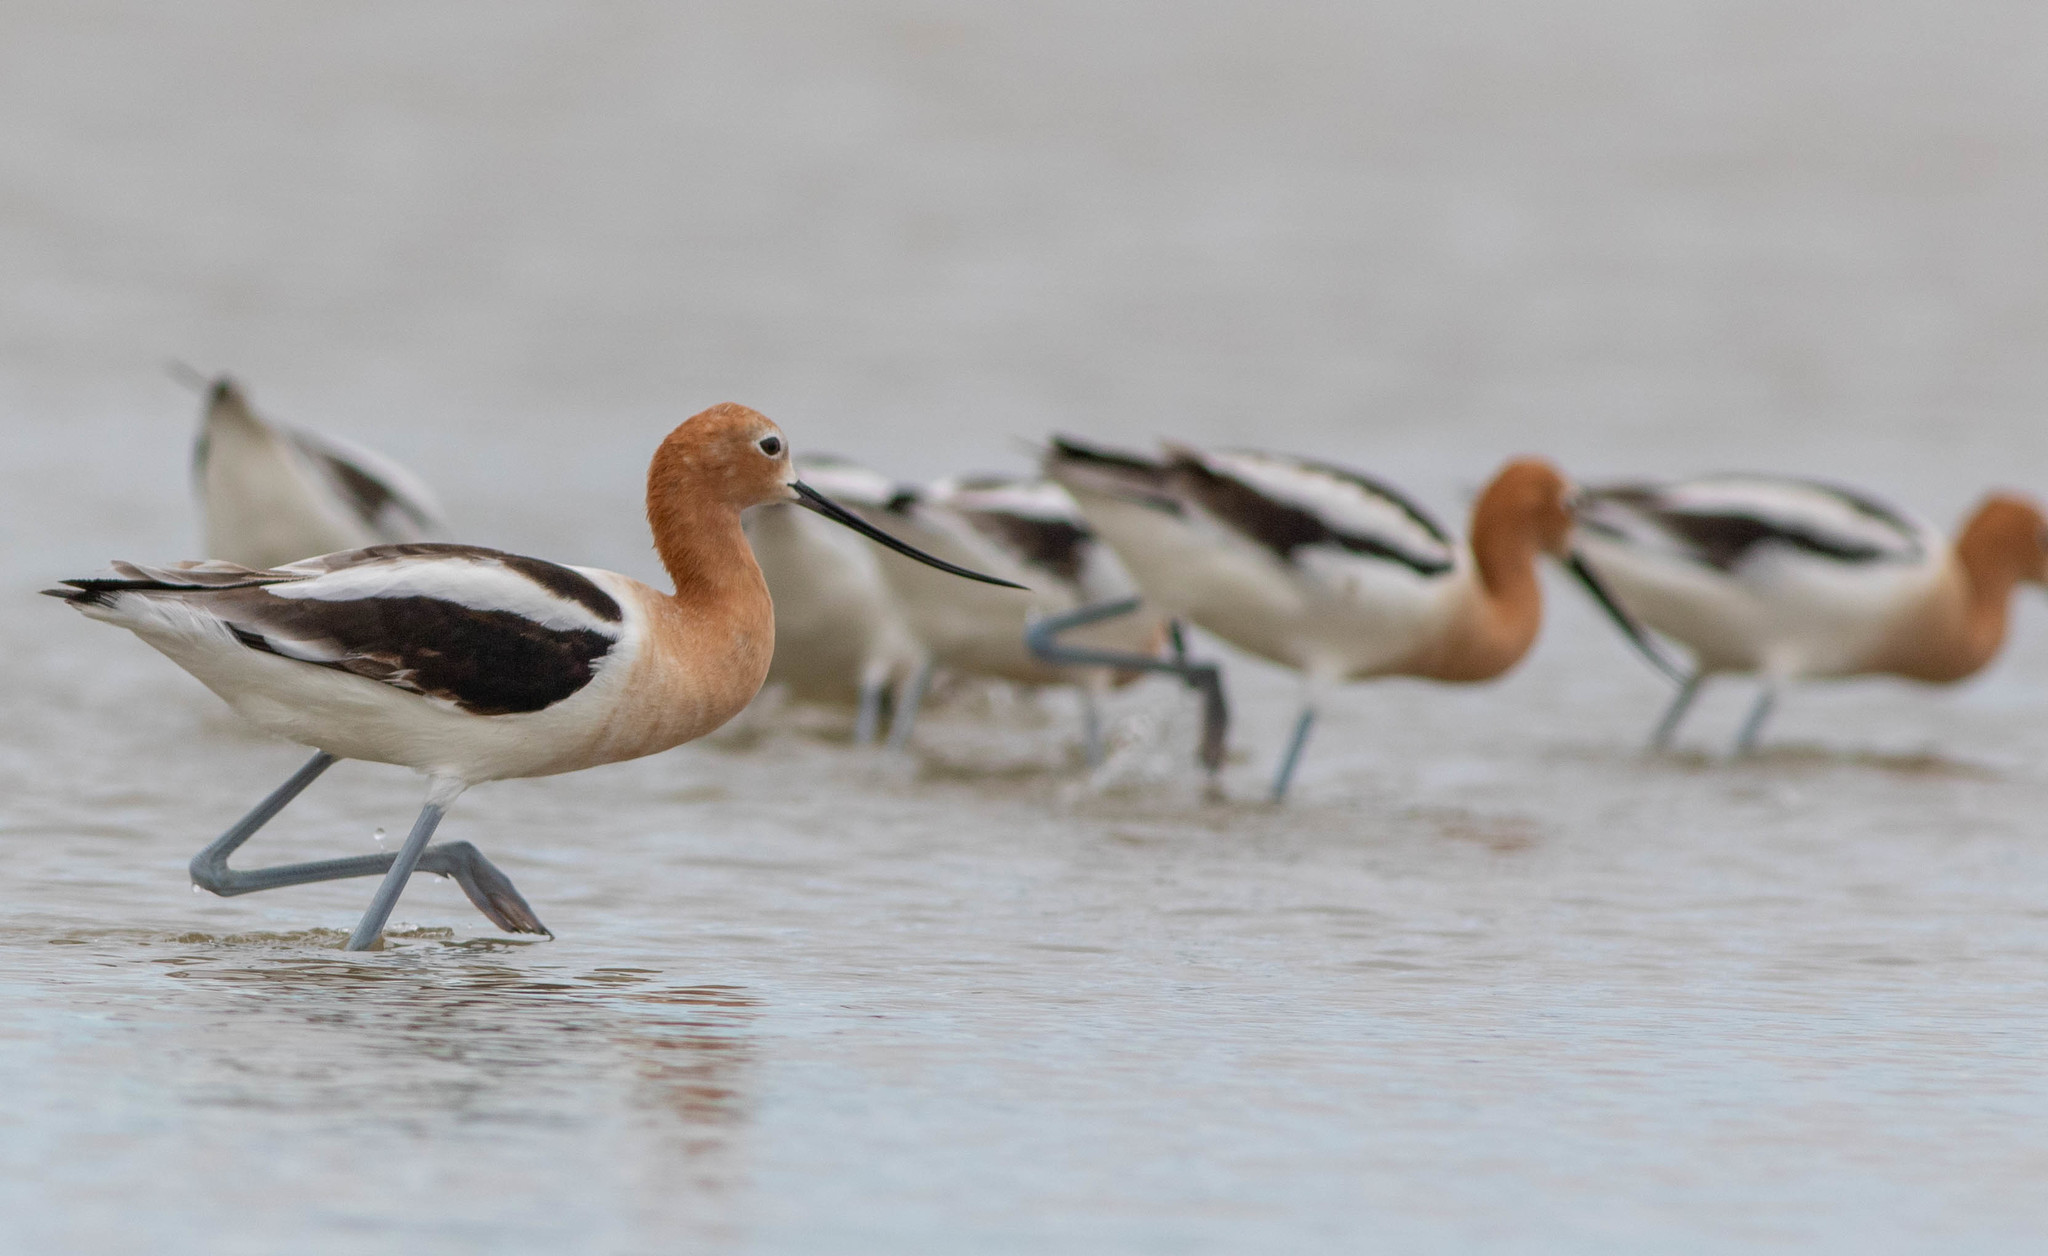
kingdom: Animalia
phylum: Chordata
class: Aves
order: Charadriiformes
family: Recurvirostridae
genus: Recurvirostra
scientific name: Recurvirostra americana
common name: American avocet
